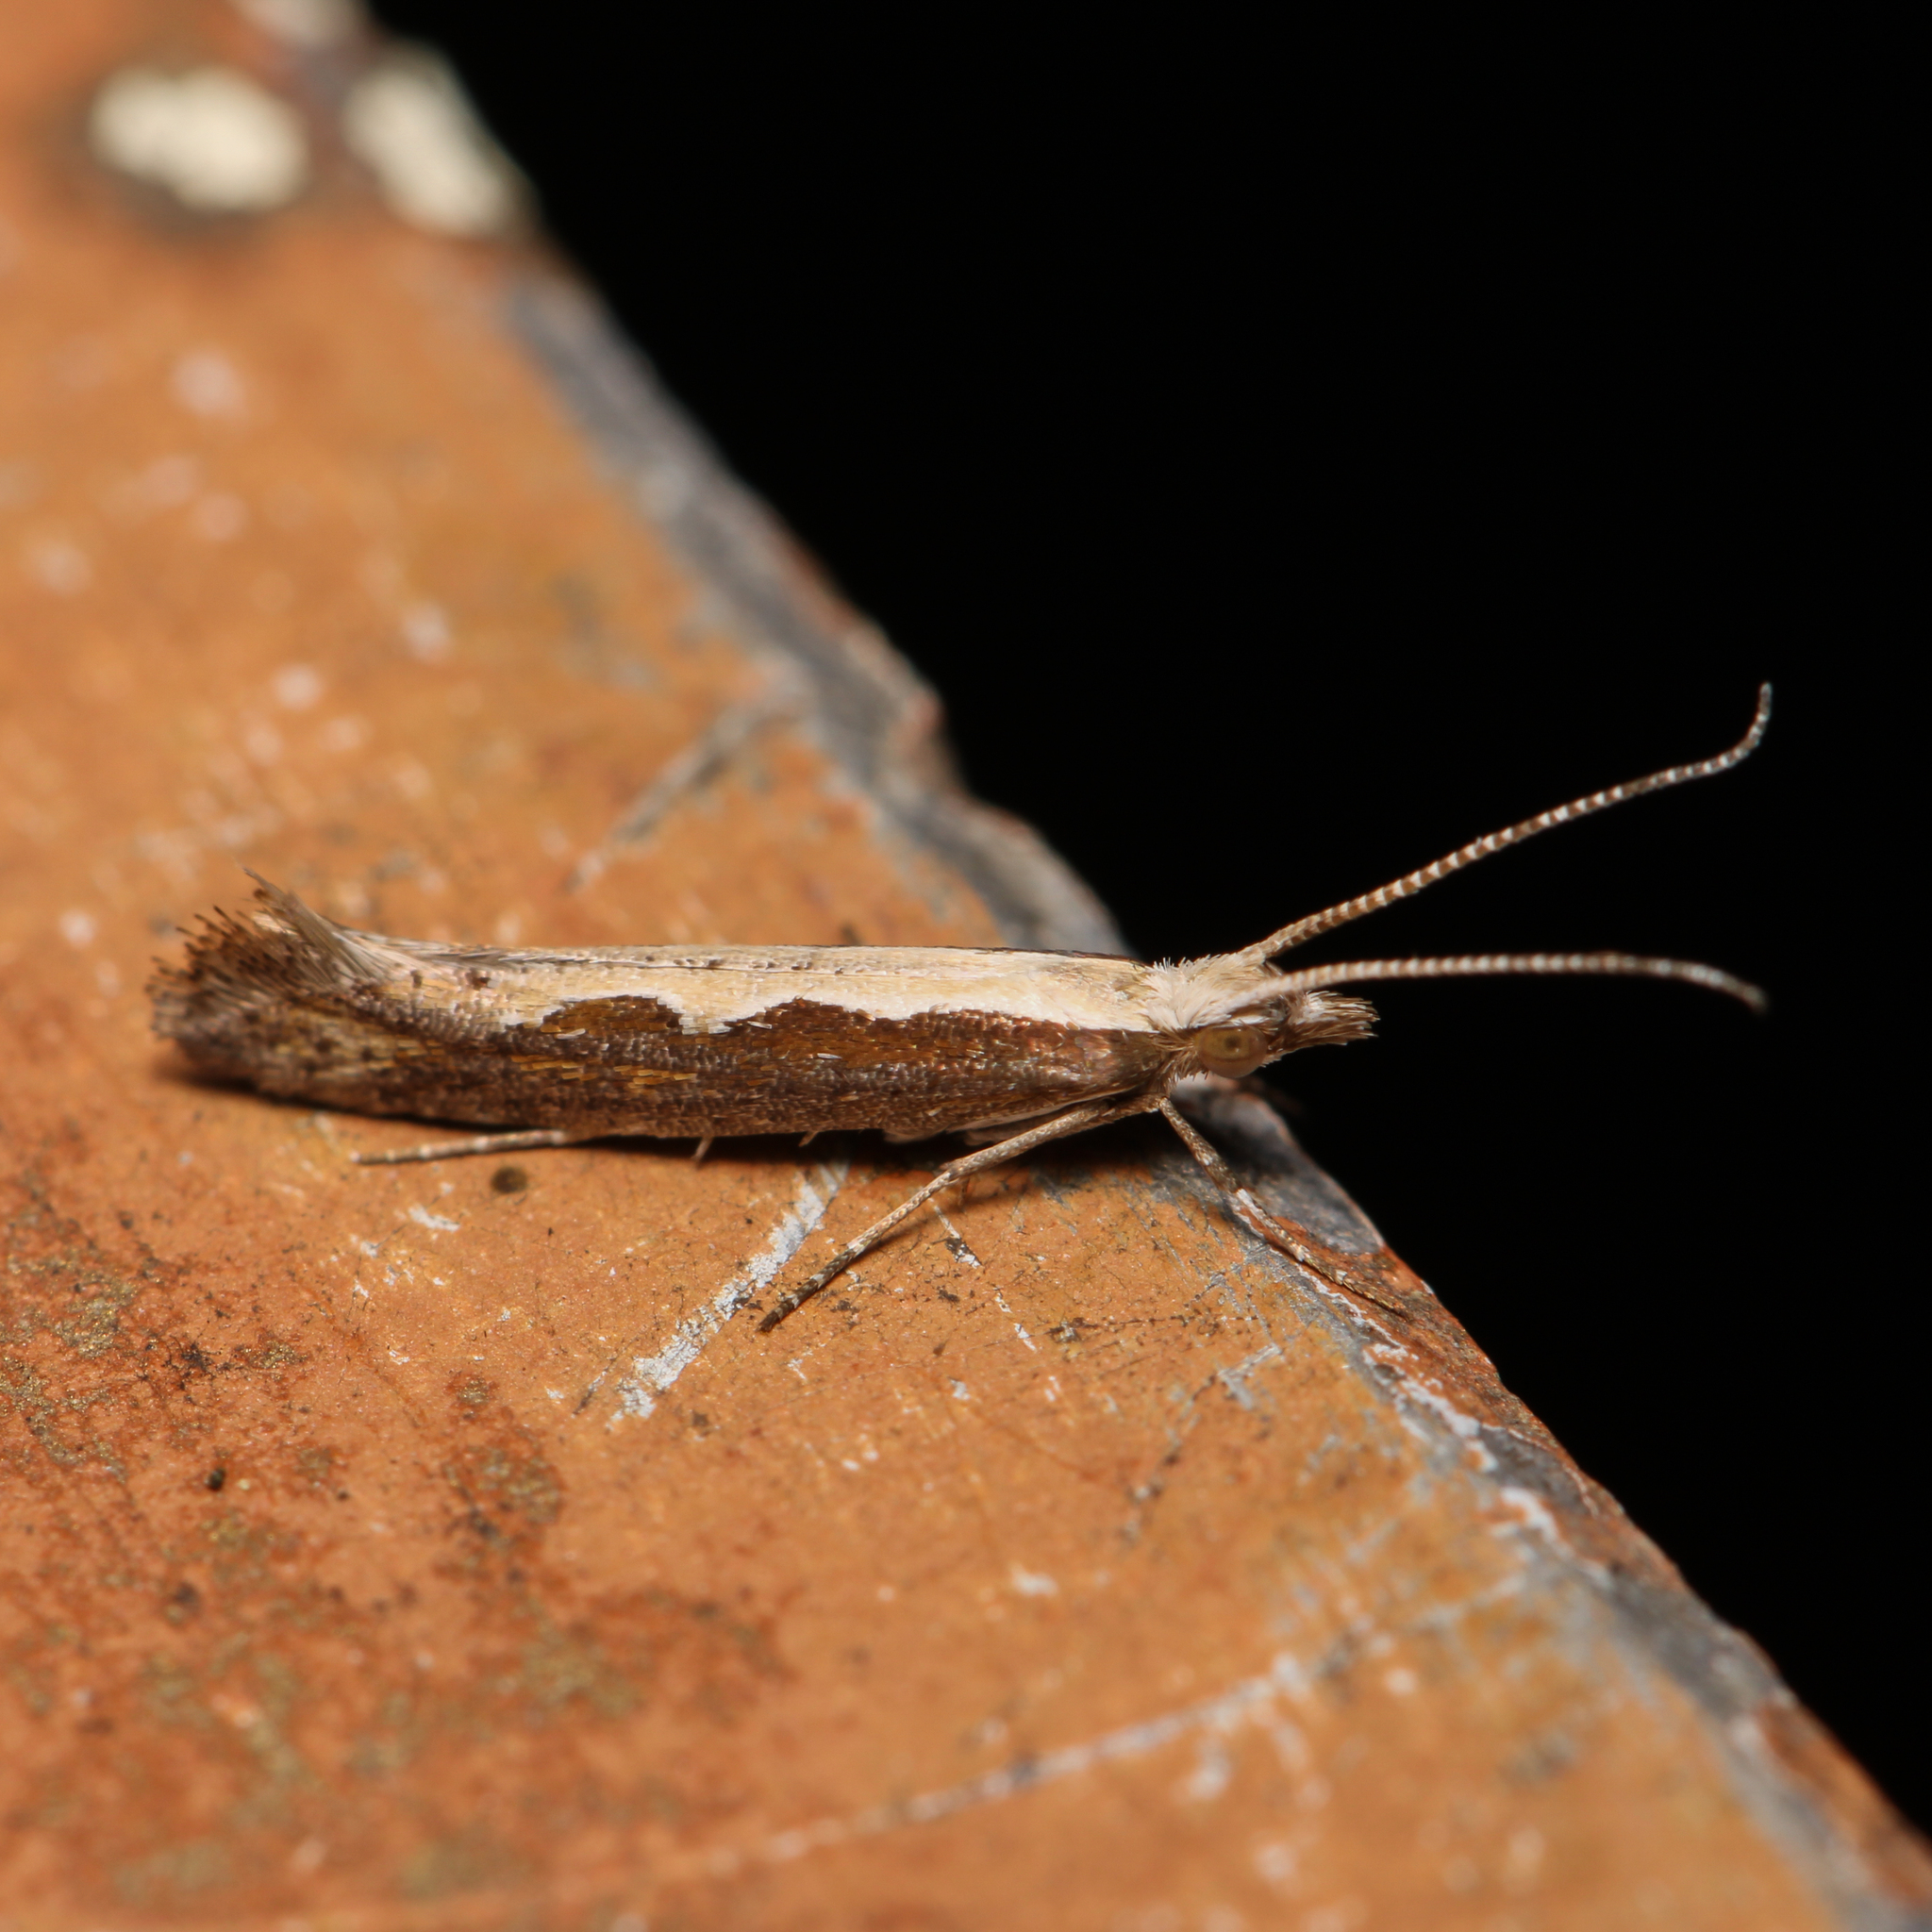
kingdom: Animalia
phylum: Arthropoda
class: Insecta
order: Lepidoptera
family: Plutellidae
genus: Plutella
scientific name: Plutella xylostella
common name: Diamond-back moth
